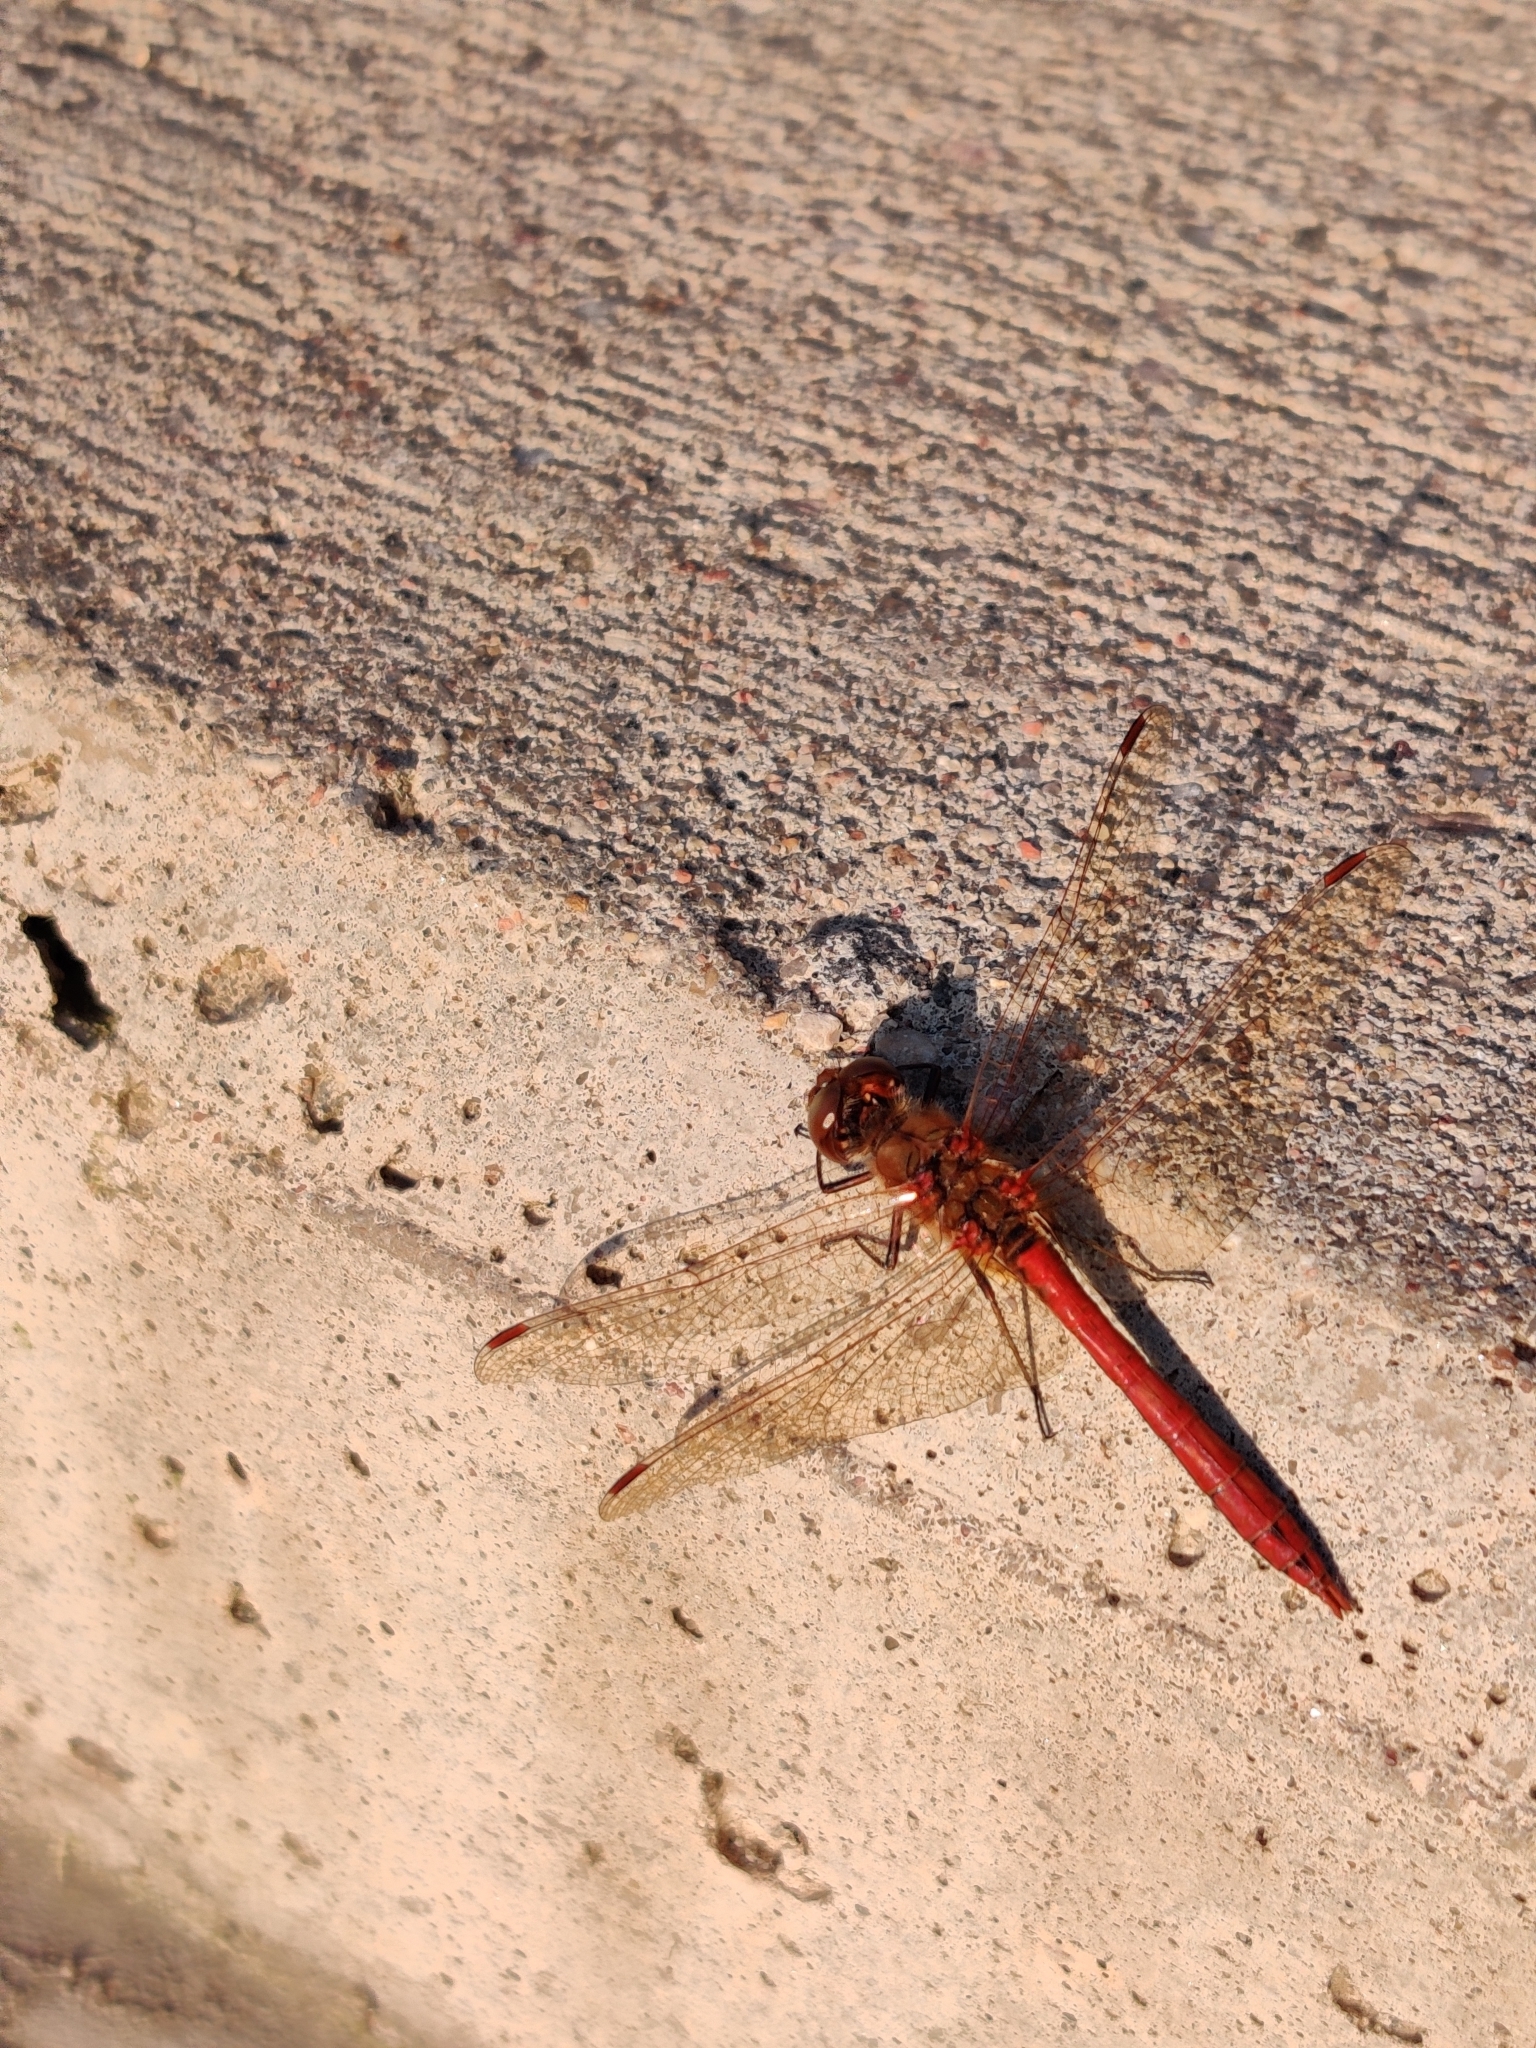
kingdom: Animalia
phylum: Arthropoda
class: Insecta
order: Odonata
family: Libellulidae
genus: Sympetrum
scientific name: Sympetrum vulgatum
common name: Vagrant darter
